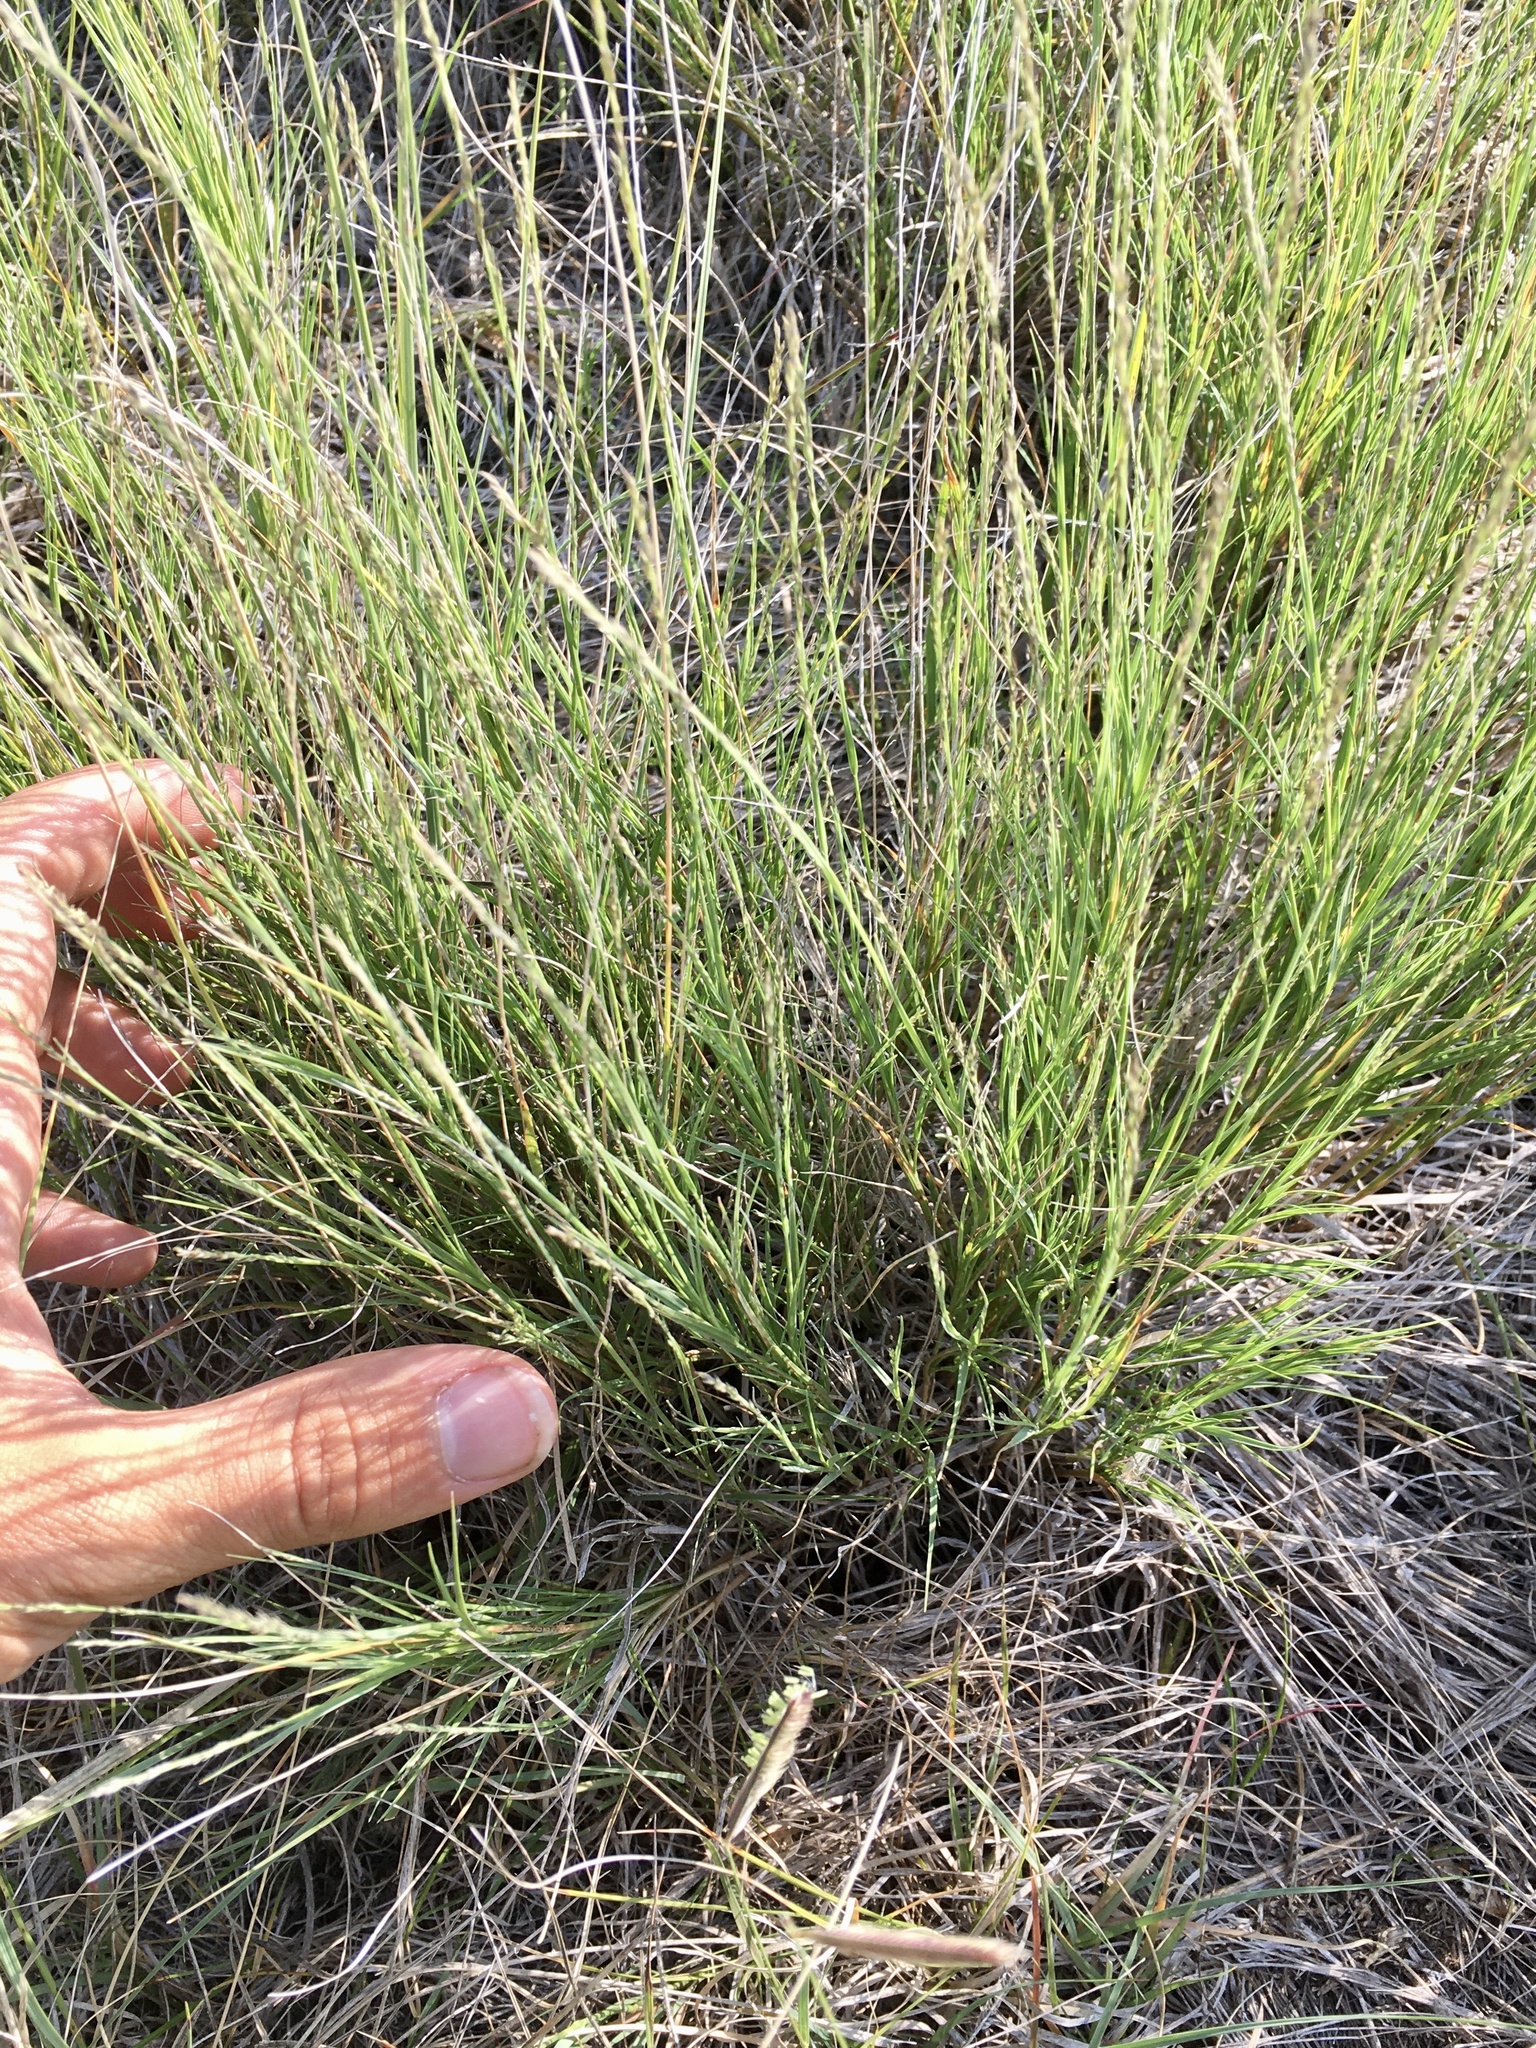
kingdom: Plantae
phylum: Tracheophyta
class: Liliopsida
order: Poales
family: Poaceae
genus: Muhlenbergia
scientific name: Muhlenbergia cuspidata
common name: Plains muhly
